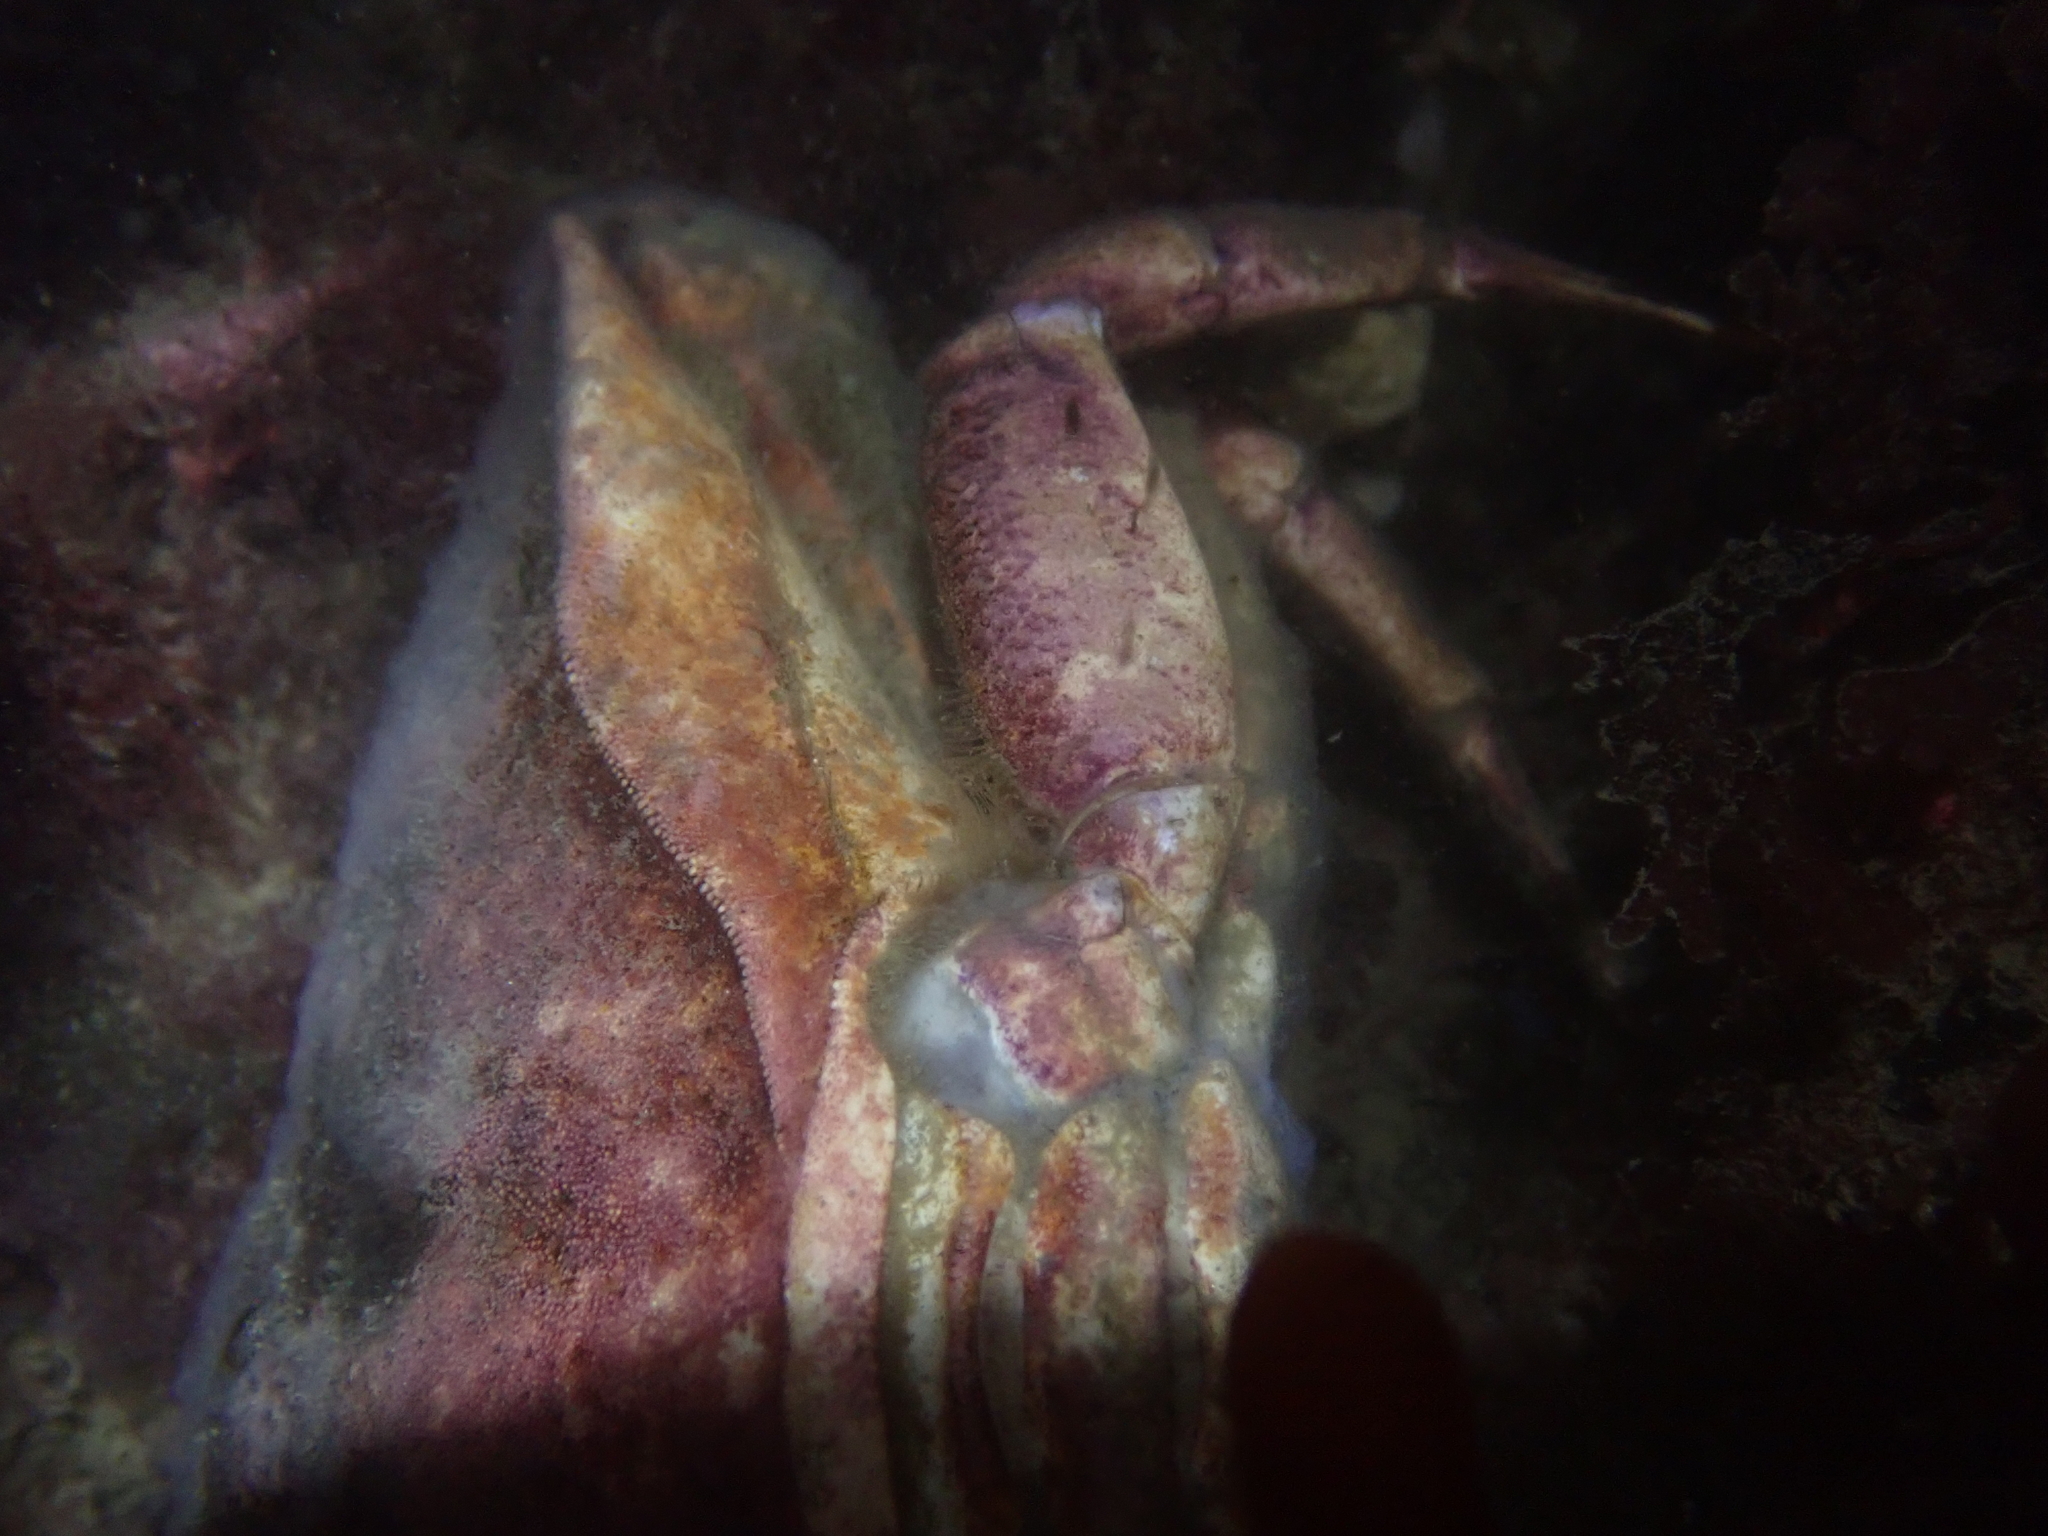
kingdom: Animalia
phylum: Arthropoda
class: Malacostraca
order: Decapoda
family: Cancridae
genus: Cancer
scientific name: Cancer productus
